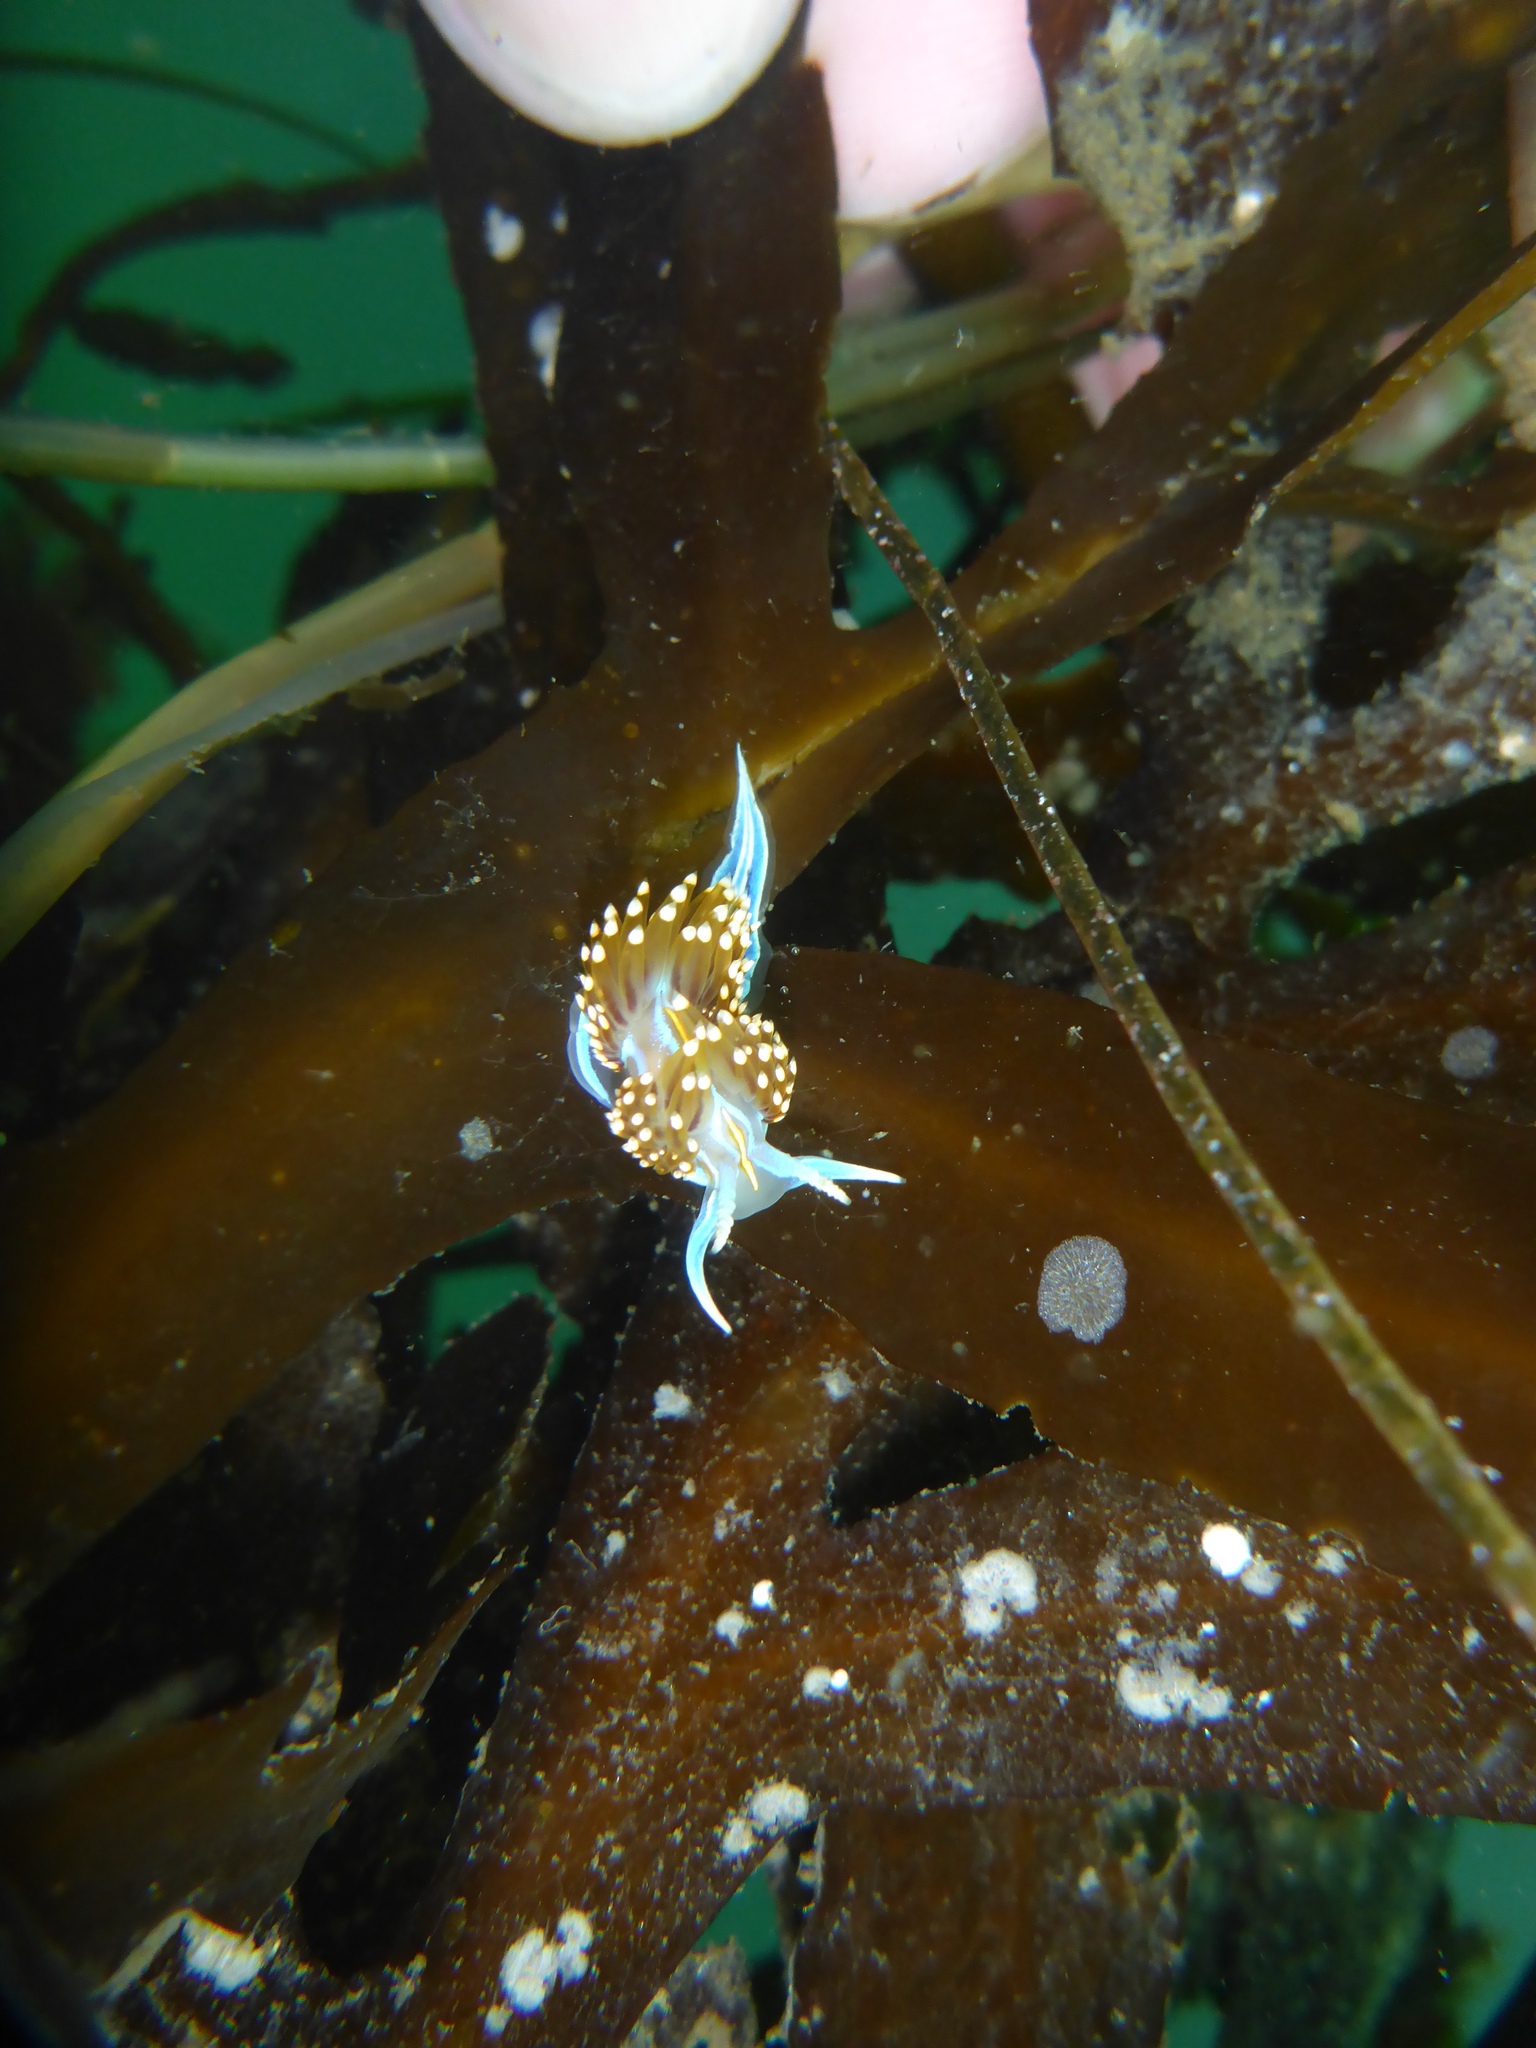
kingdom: Animalia
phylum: Mollusca
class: Gastropoda
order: Nudibranchia
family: Myrrhinidae
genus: Hermissenda
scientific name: Hermissenda opalescens
